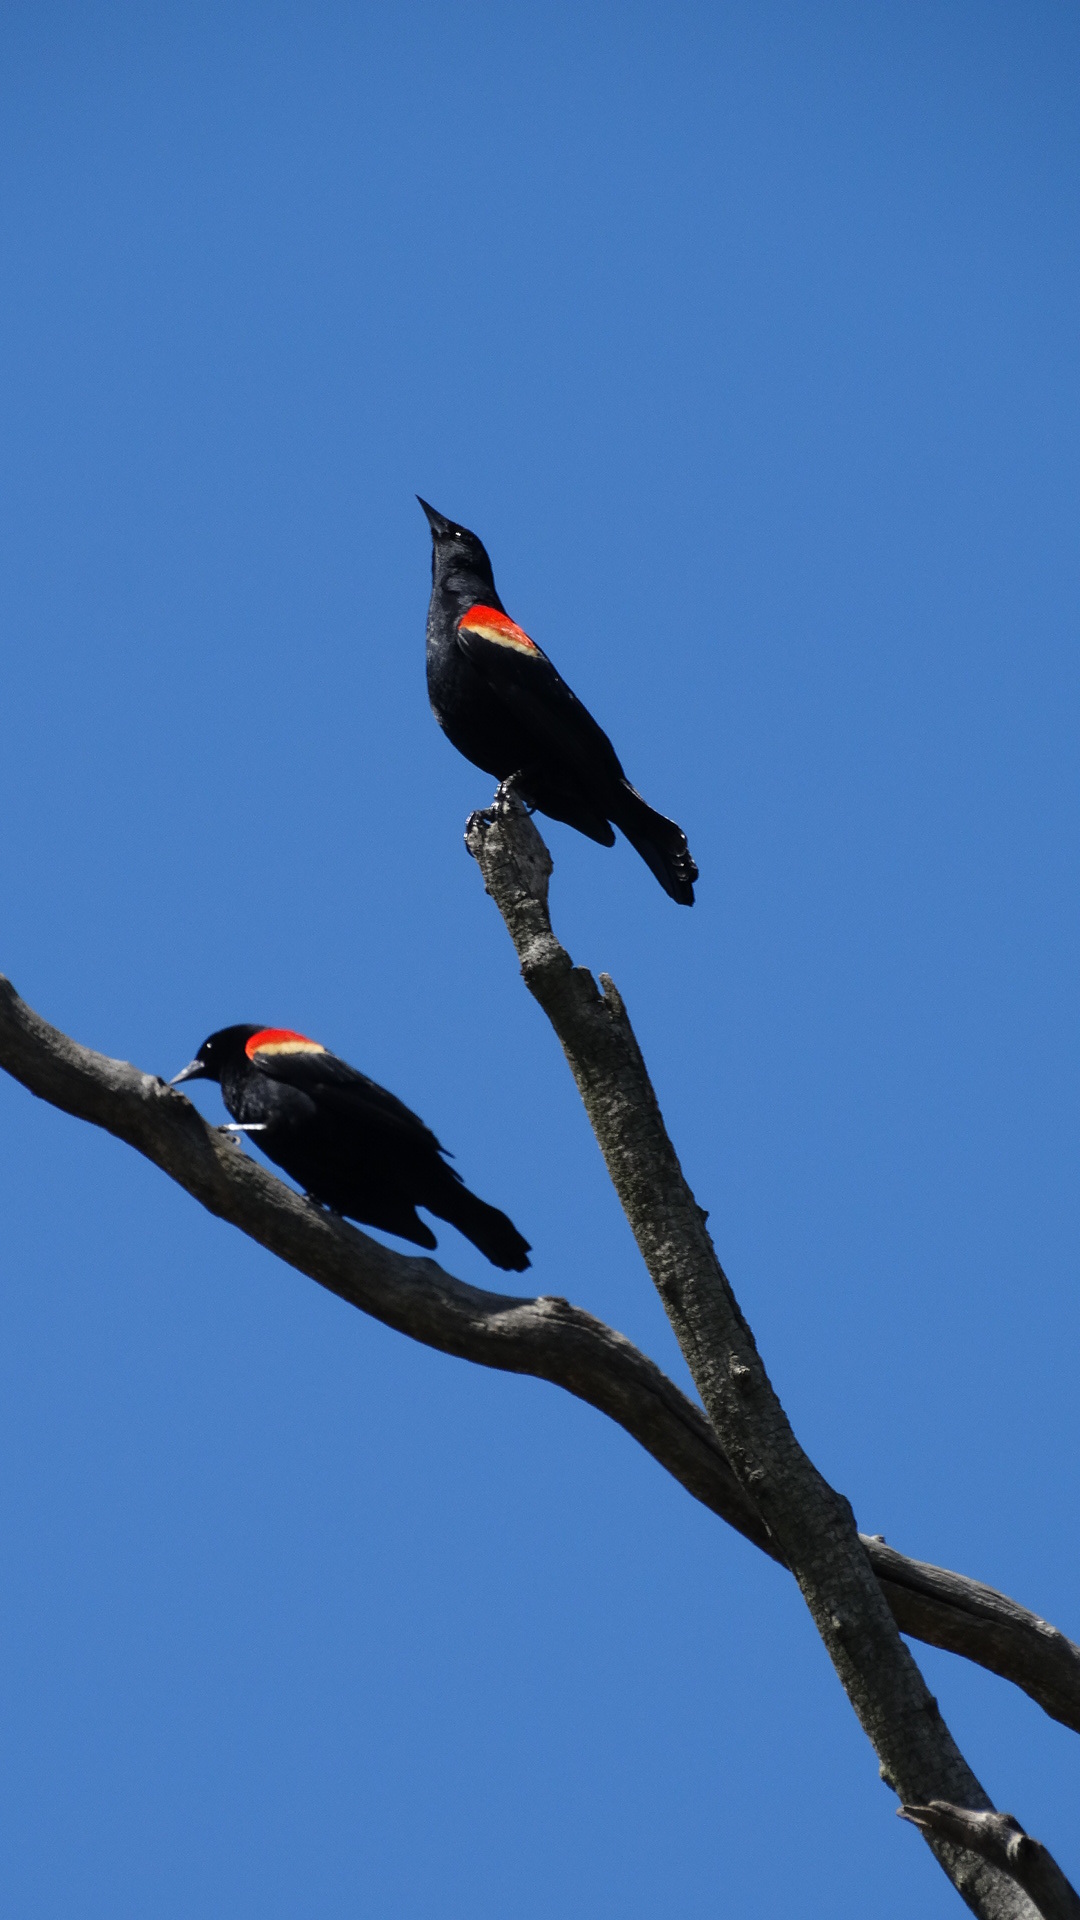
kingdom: Animalia
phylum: Chordata
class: Aves
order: Passeriformes
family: Icteridae
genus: Agelaius
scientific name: Agelaius phoeniceus
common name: Red-winged blackbird
